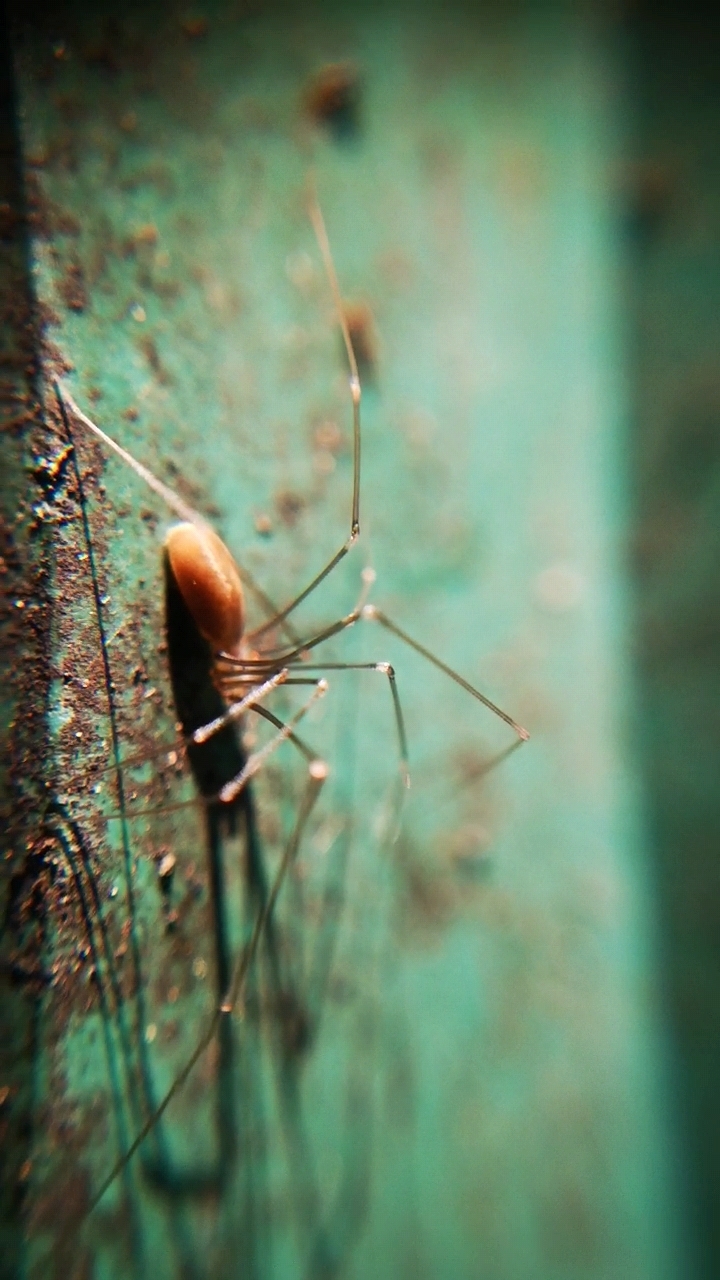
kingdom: Animalia
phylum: Arthropoda
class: Arachnida
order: Araneae
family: Pholcidae
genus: Pholcus
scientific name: Pholcus opilionoides
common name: Daddylongleg spider
